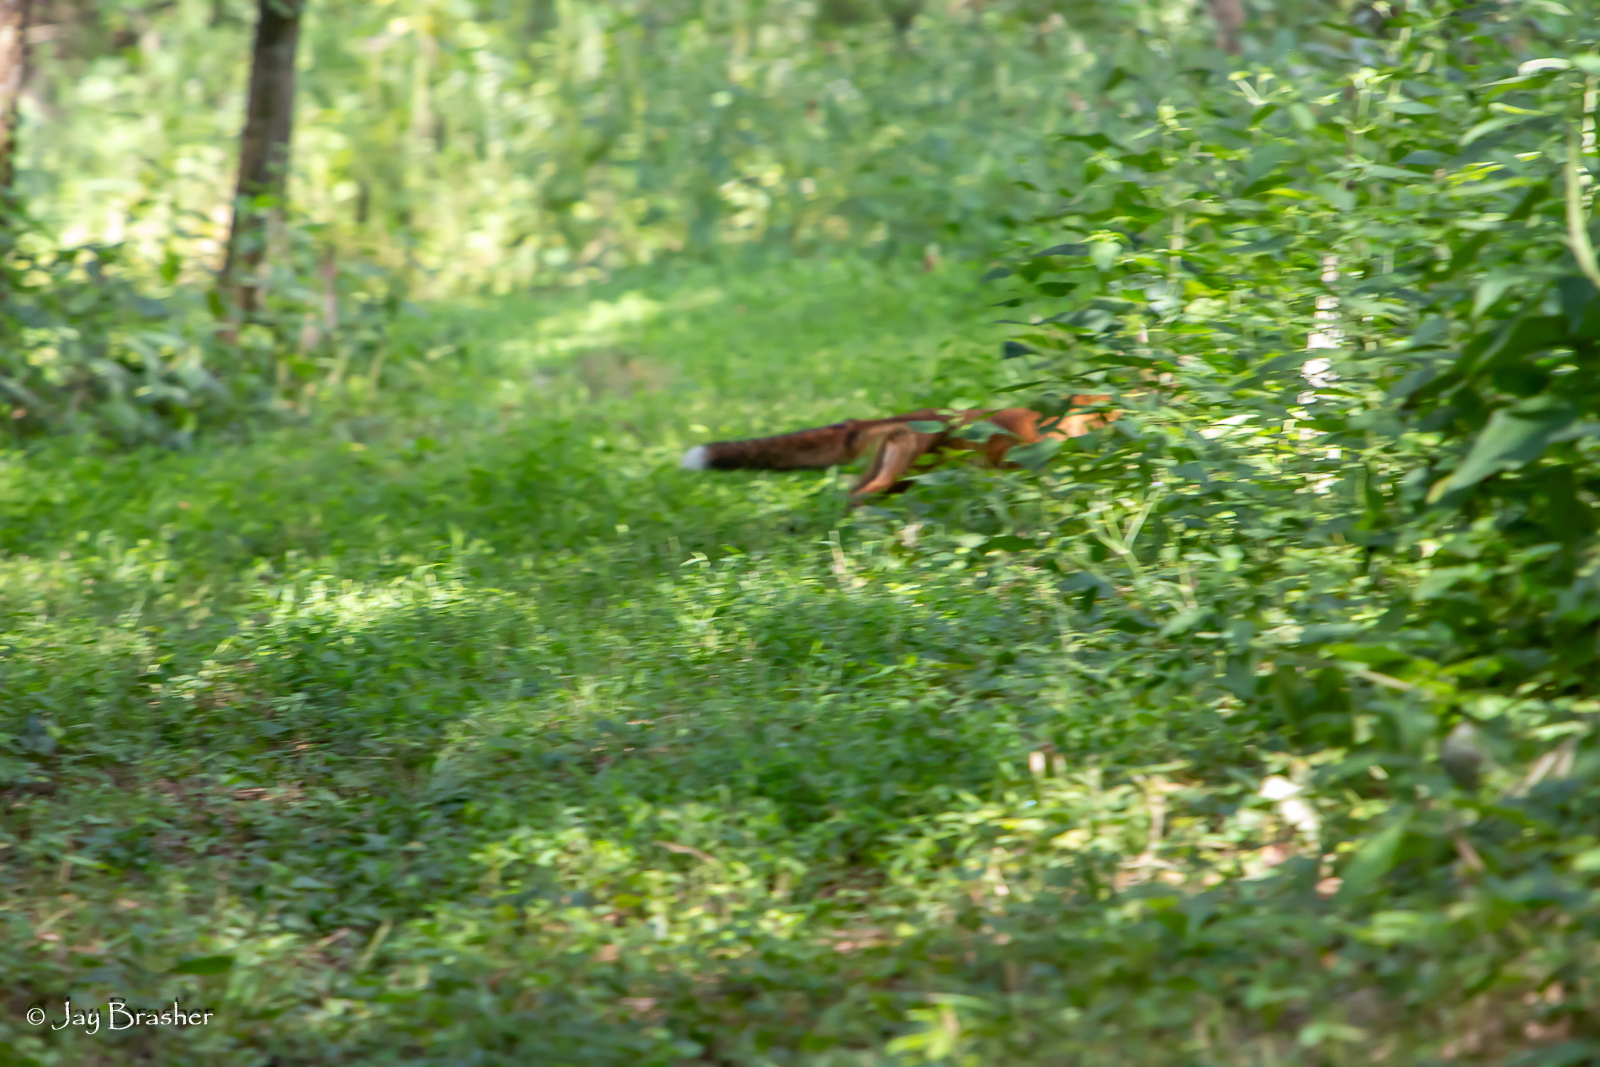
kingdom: Animalia
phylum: Chordata
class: Mammalia
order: Carnivora
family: Canidae
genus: Vulpes
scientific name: Vulpes vulpes
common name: Red fox
